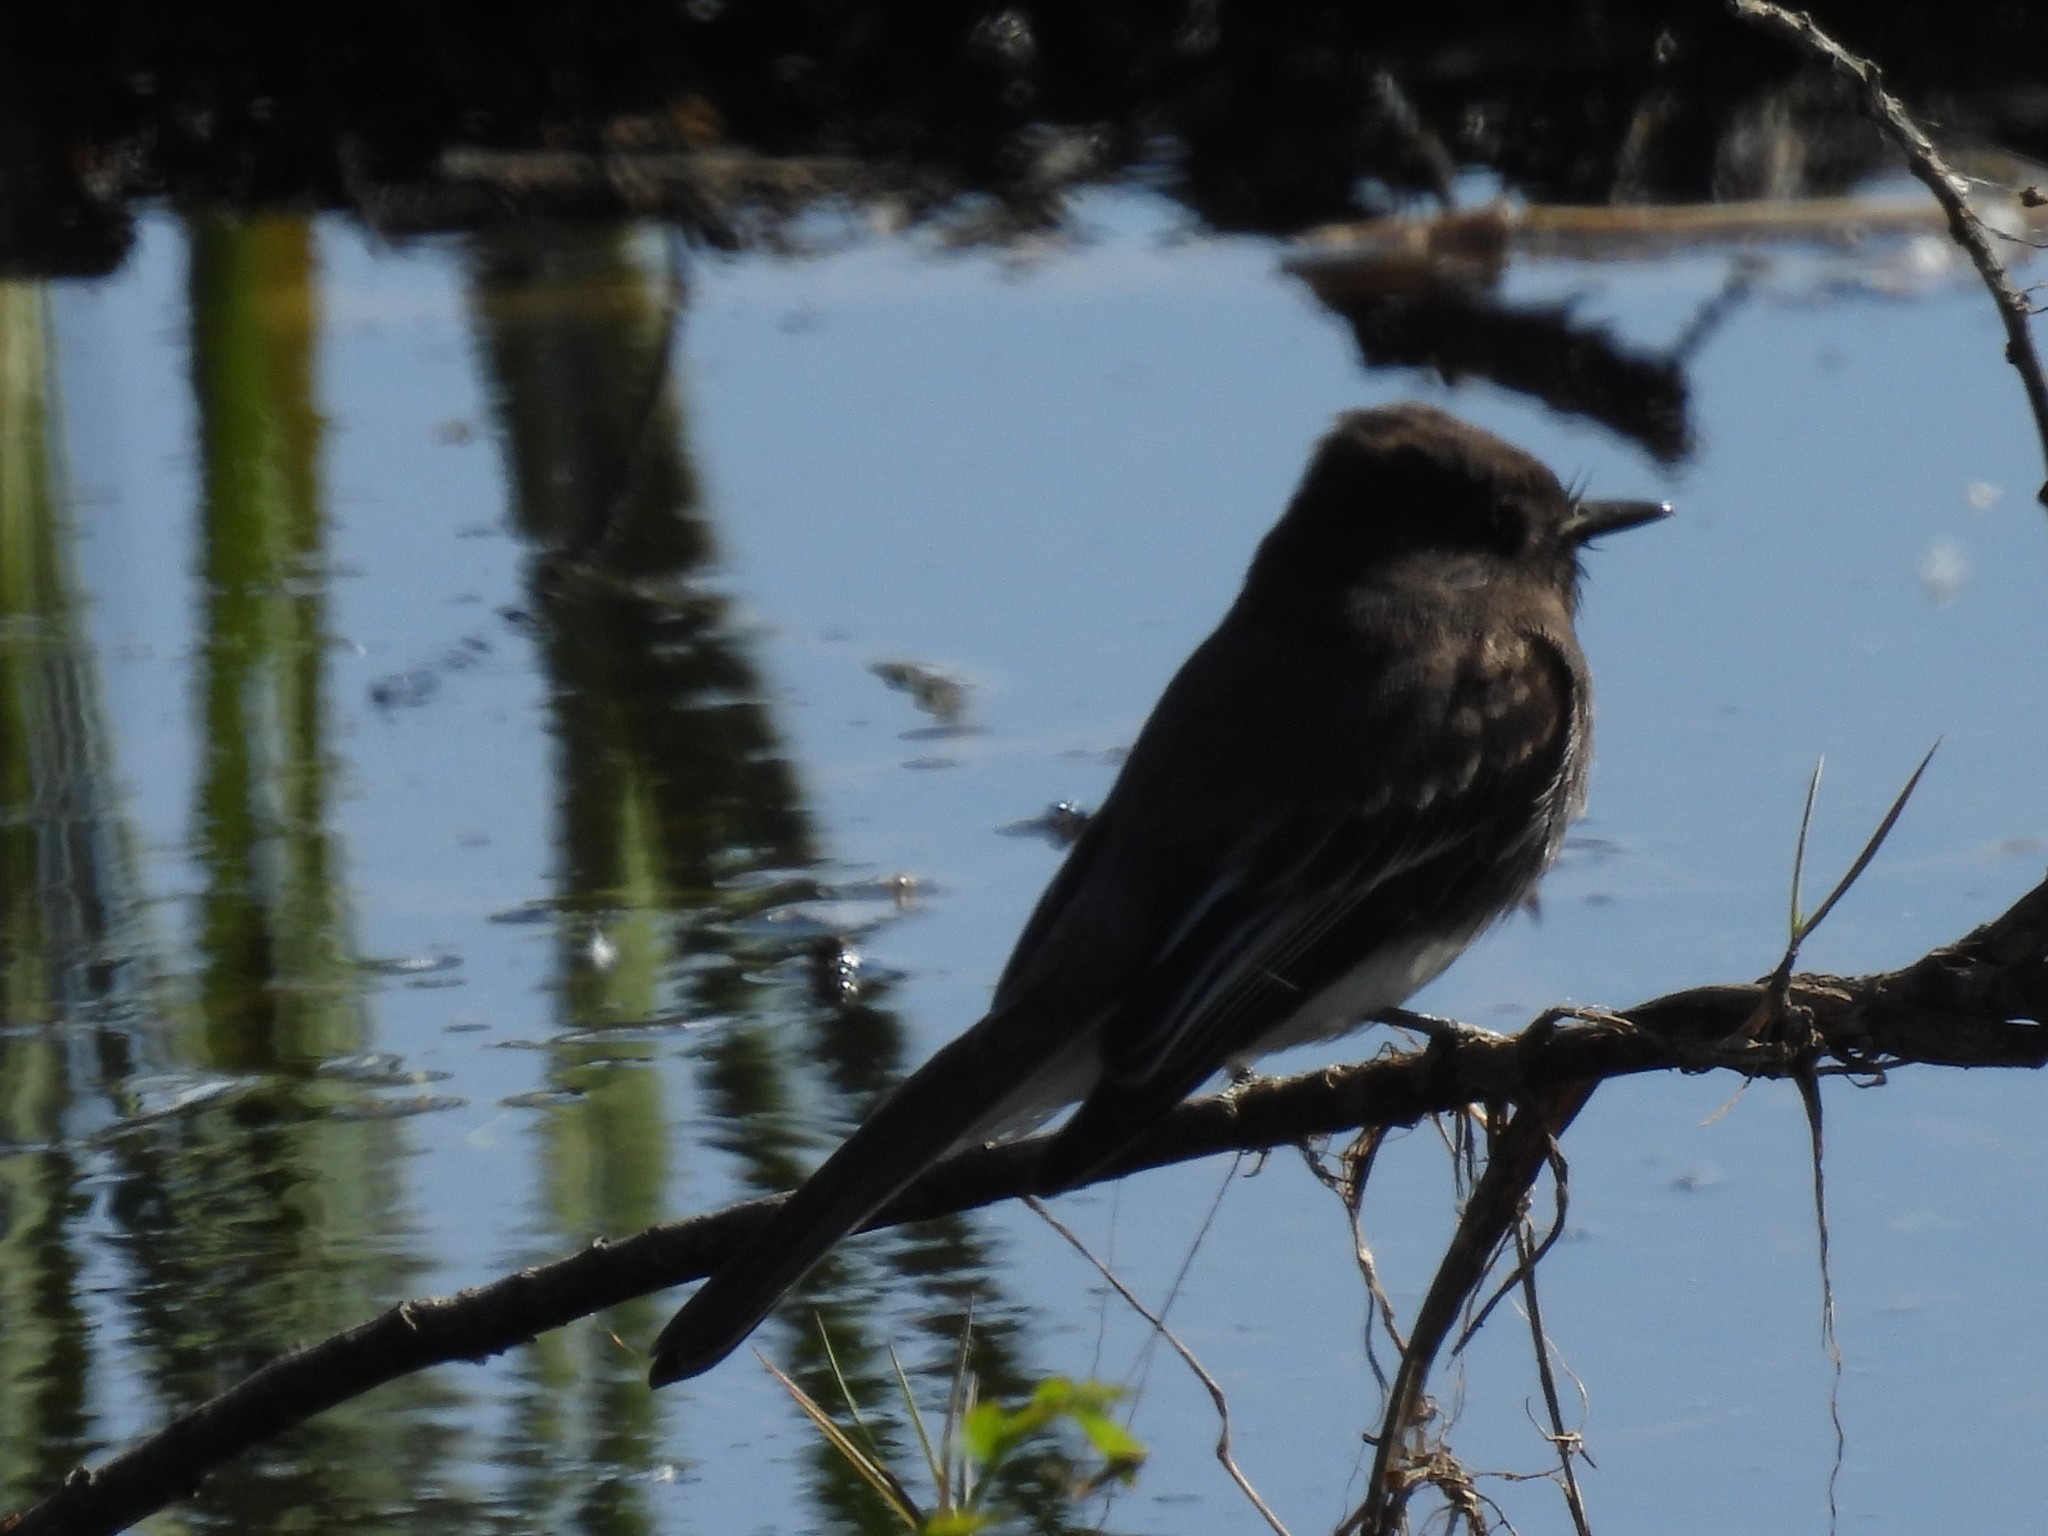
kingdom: Animalia
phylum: Chordata
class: Aves
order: Passeriformes
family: Tyrannidae
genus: Sayornis
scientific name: Sayornis nigricans
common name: Black phoebe
